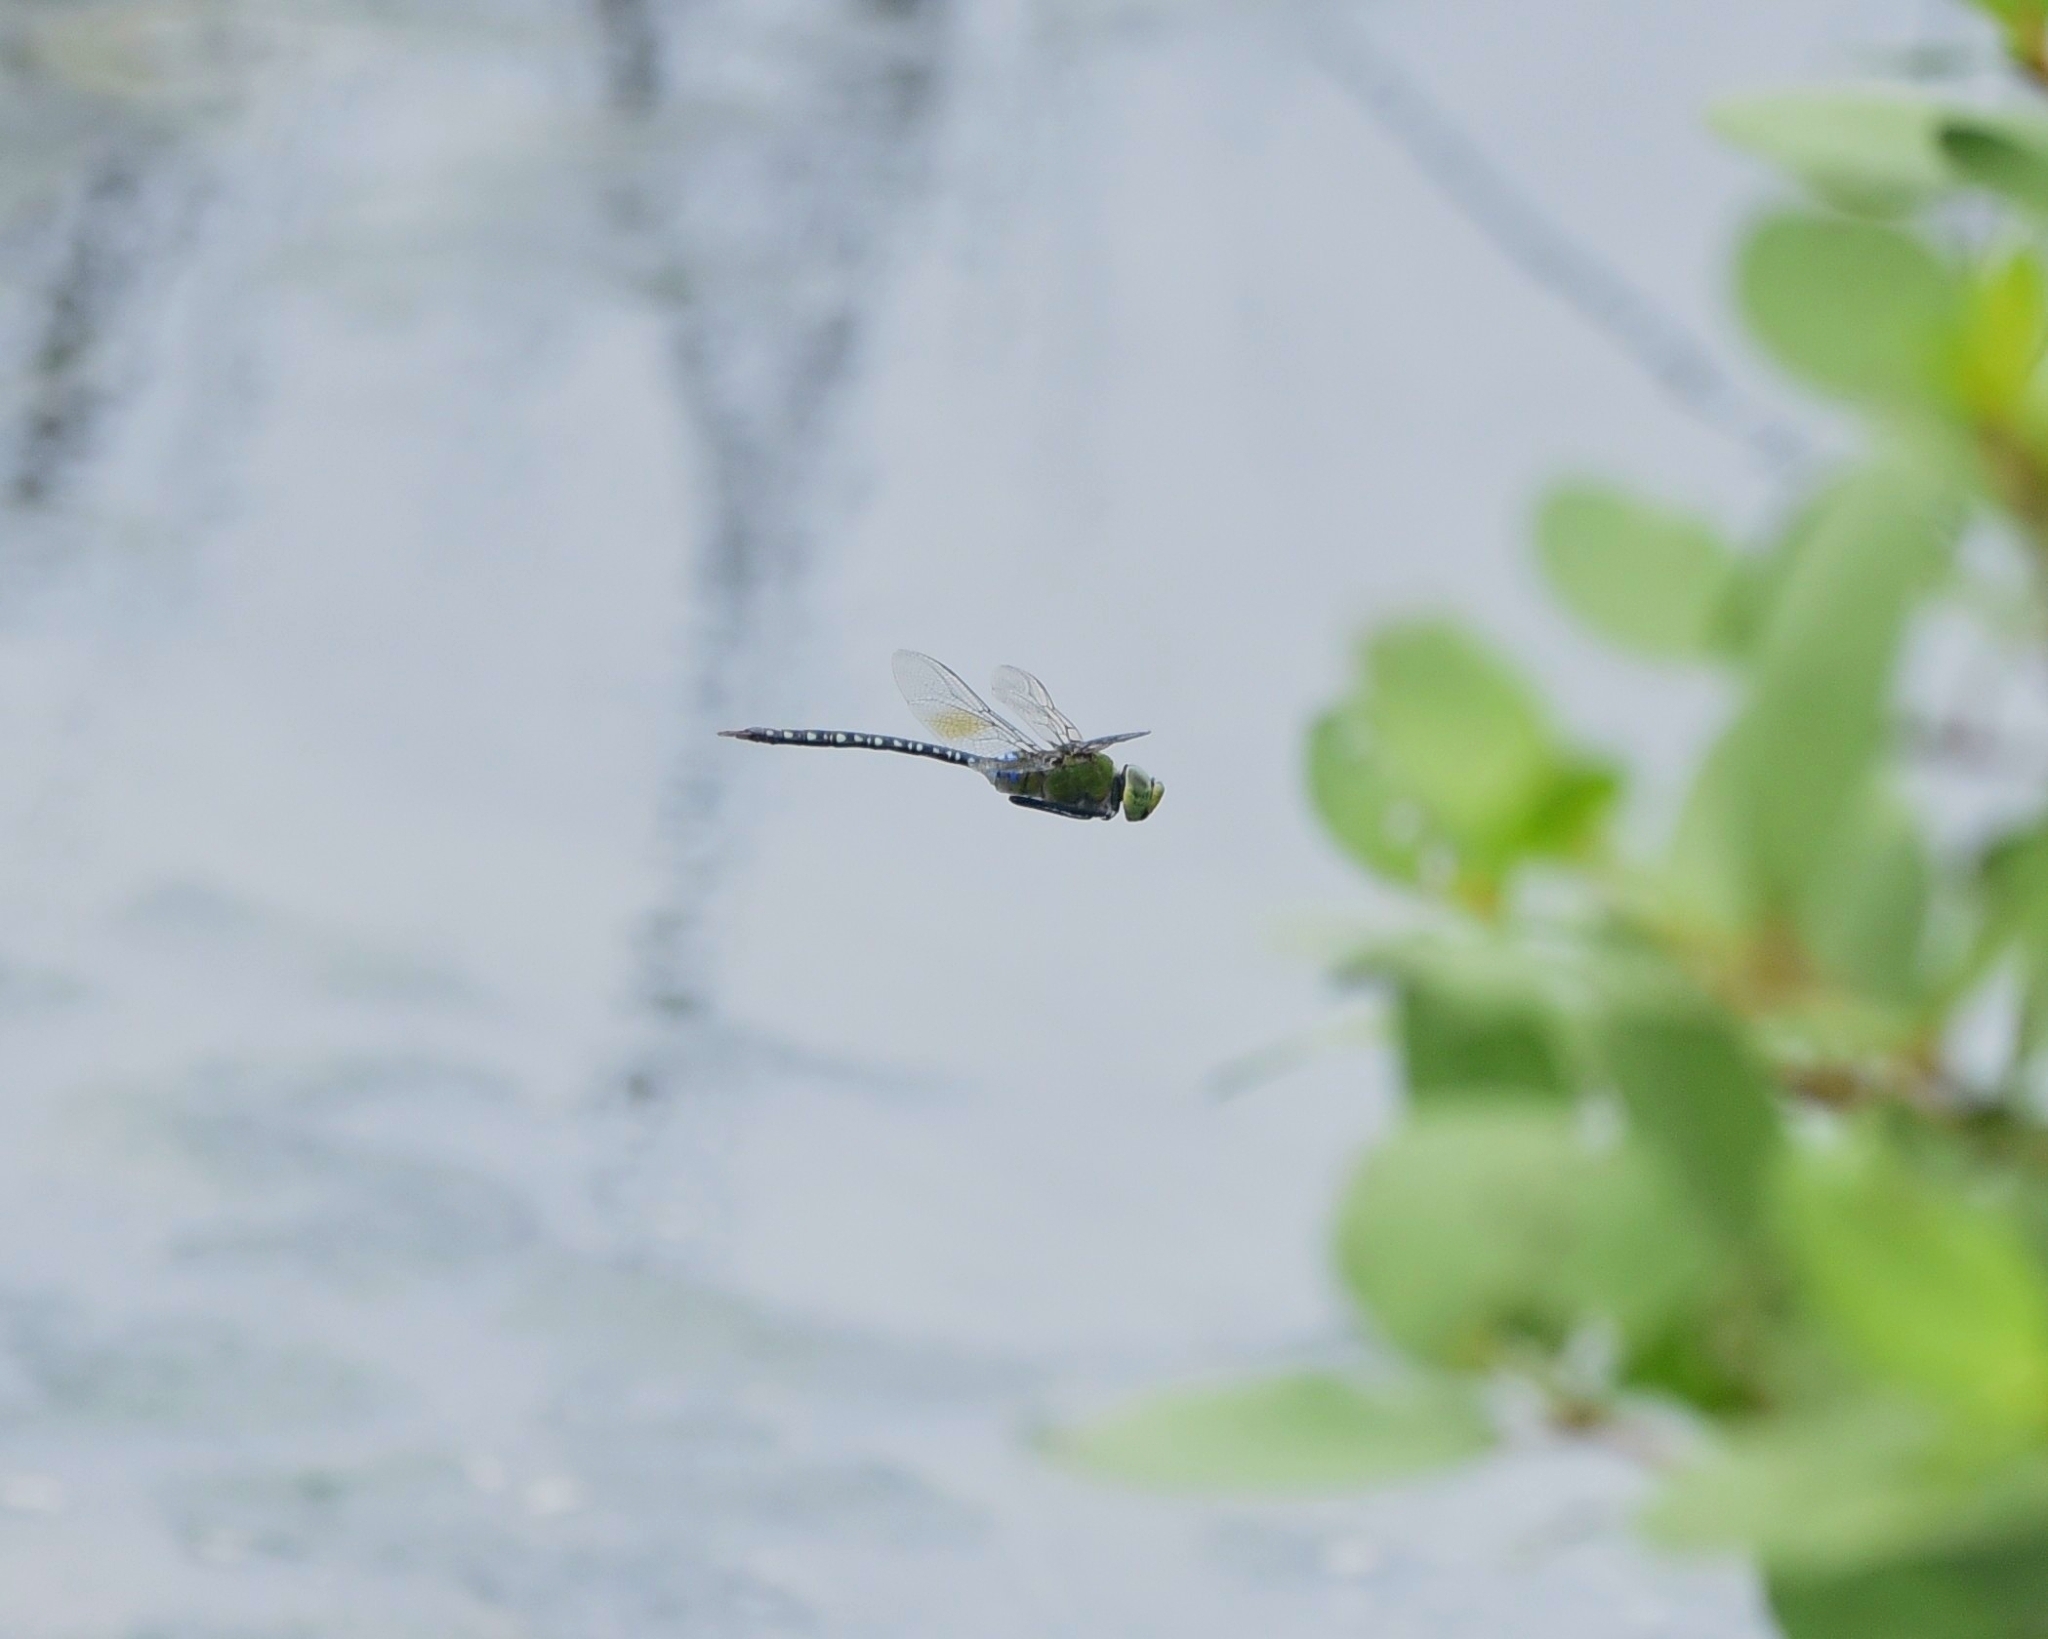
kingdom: Animalia
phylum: Arthropoda
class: Insecta
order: Odonata
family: Aeshnidae
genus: Anax
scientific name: Anax guttatus
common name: Emperor
